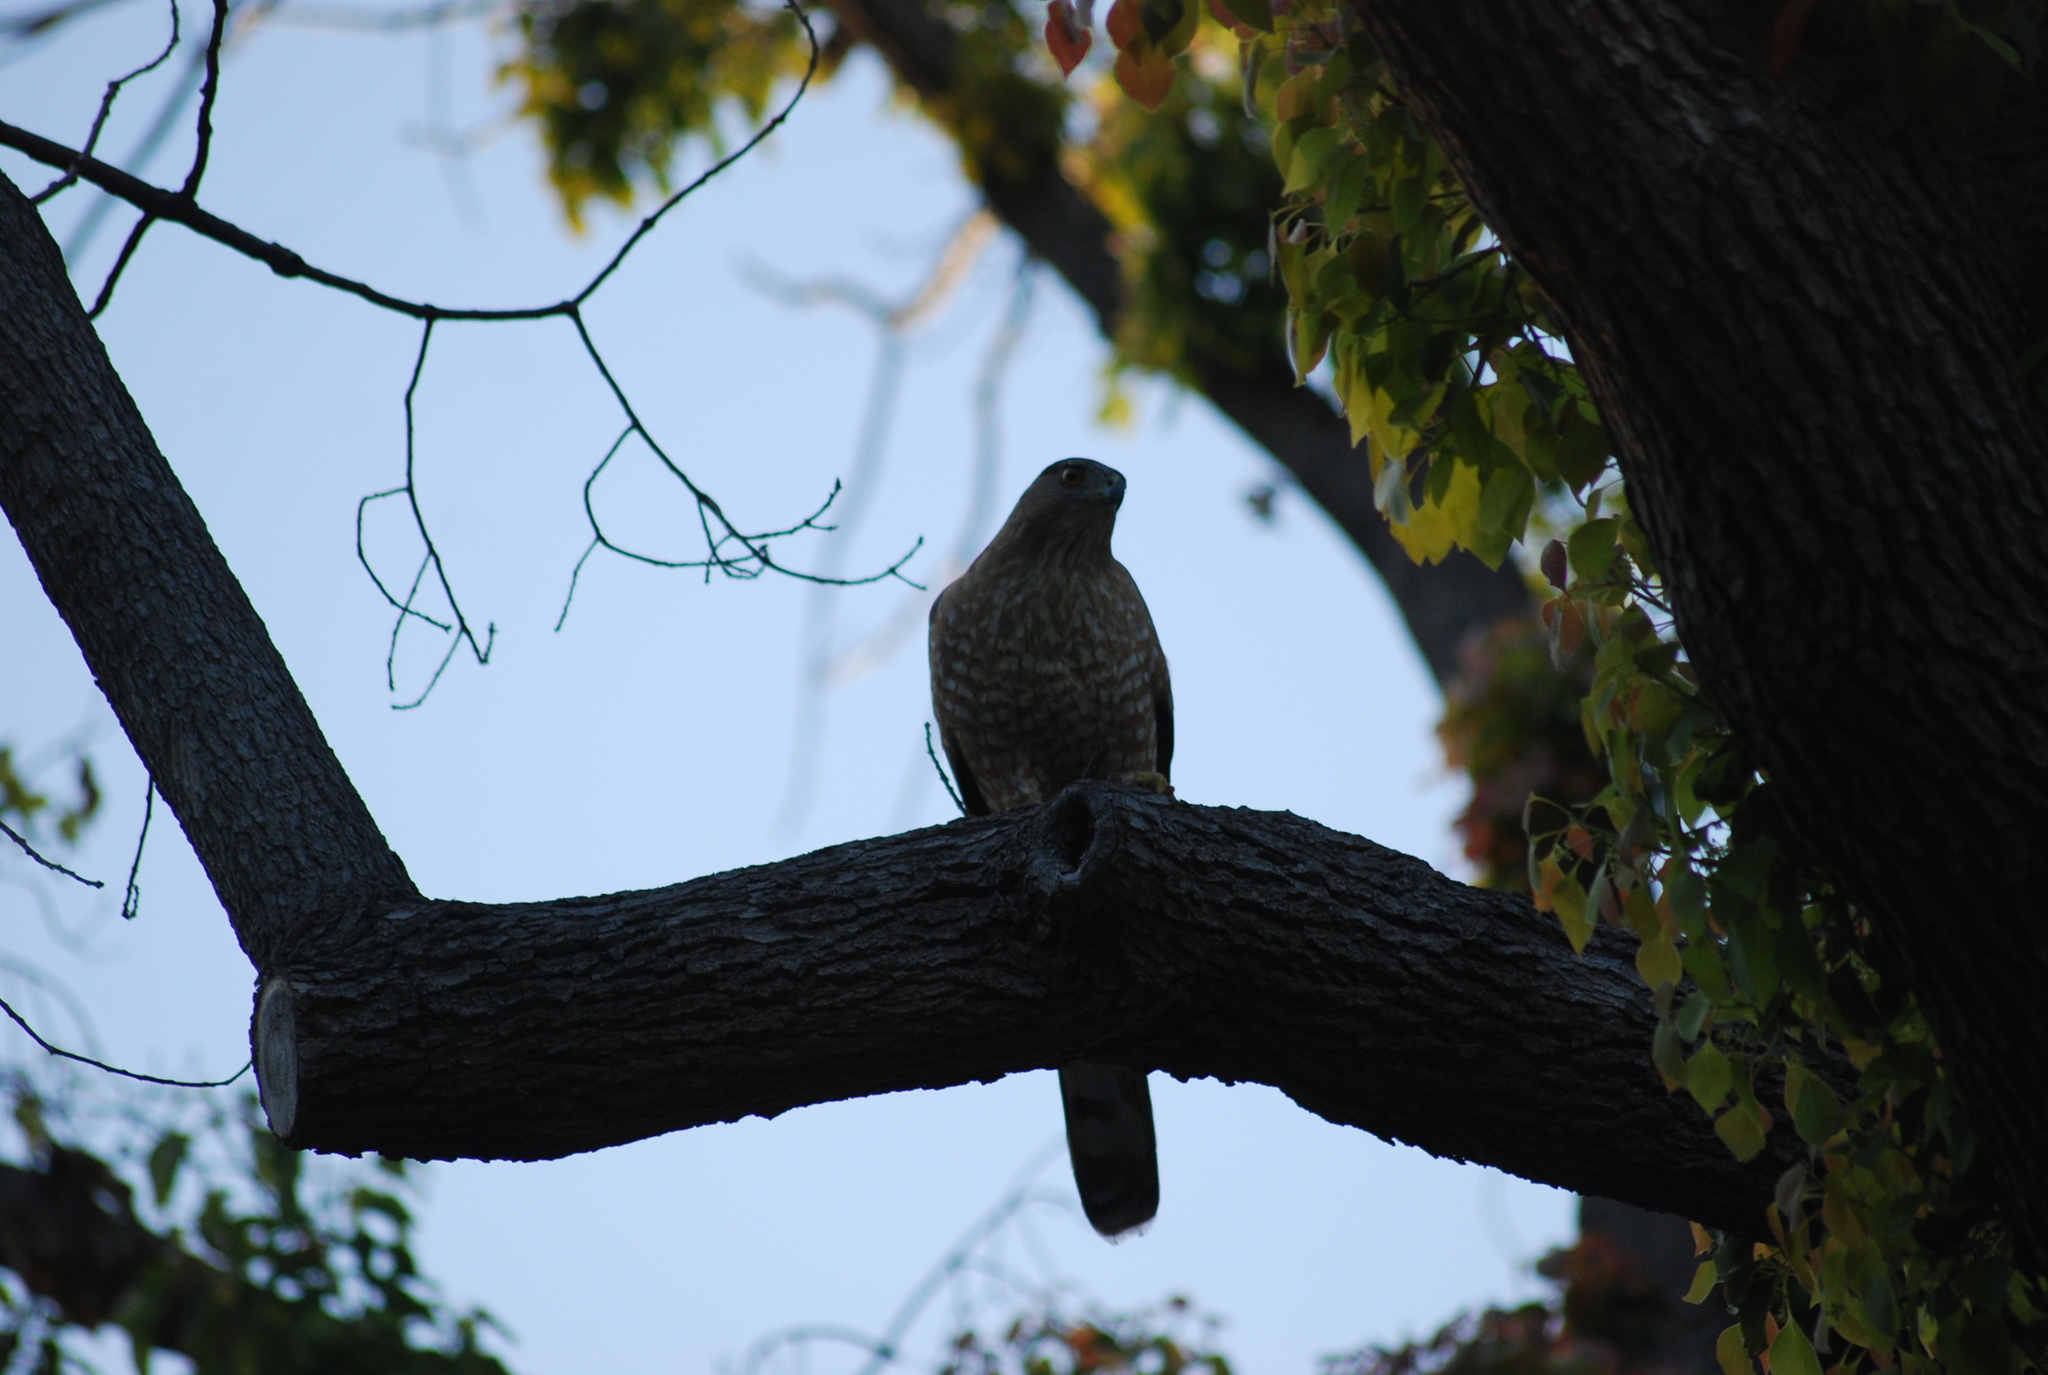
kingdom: Animalia
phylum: Chordata
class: Aves
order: Accipitriformes
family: Accipitridae
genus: Accipiter
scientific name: Accipiter cooperii
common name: Cooper's hawk
